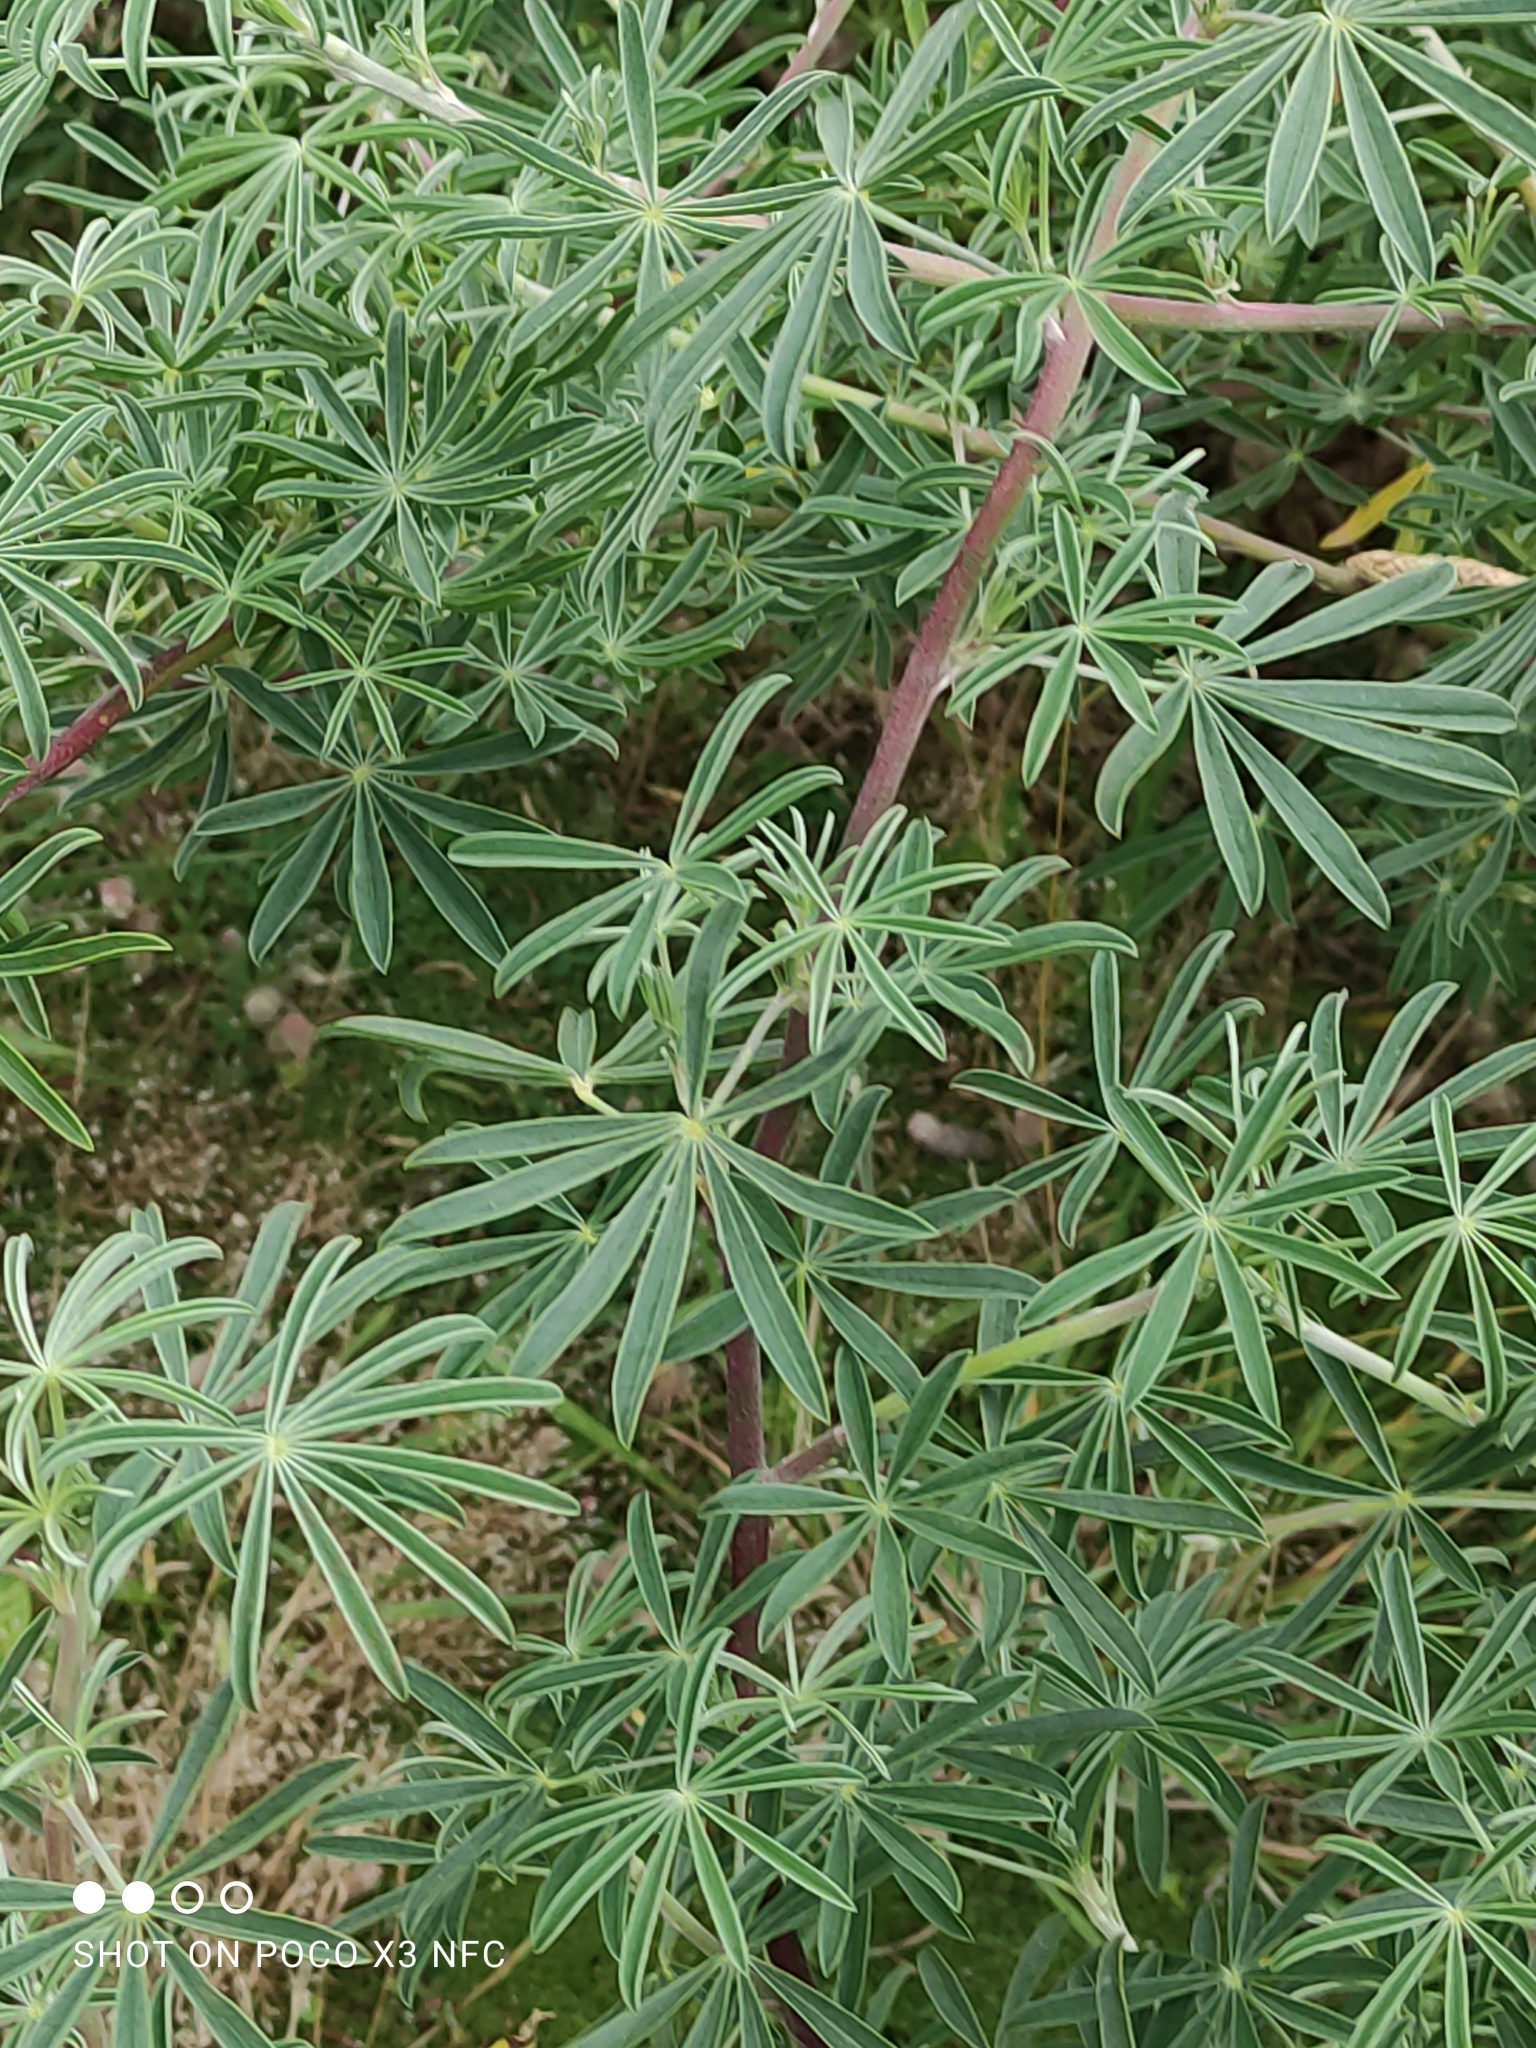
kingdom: Plantae
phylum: Tracheophyta
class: Magnoliopsida
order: Fabales
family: Fabaceae
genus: Lupinus
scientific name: Lupinus arboreus
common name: Yellow bush lupine
